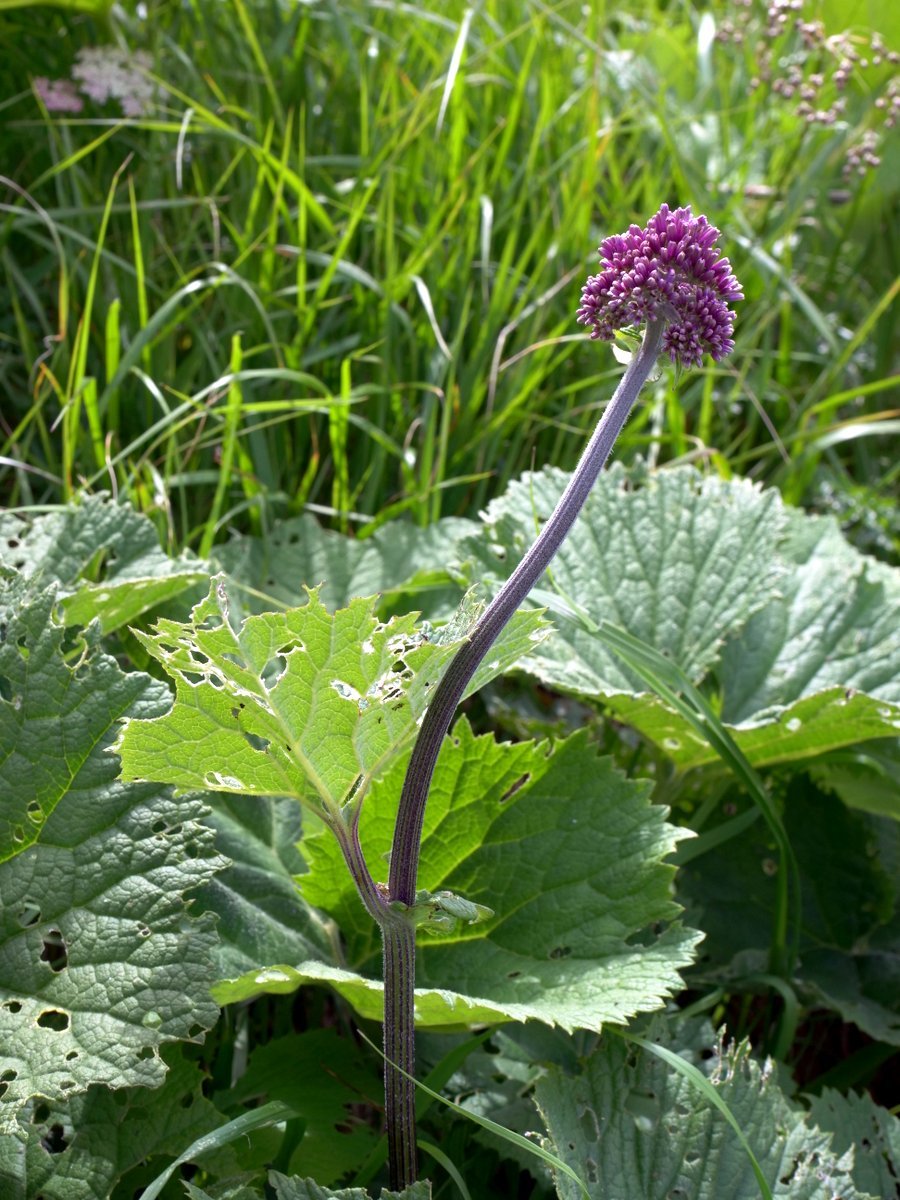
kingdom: Plantae
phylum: Tracheophyta
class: Magnoliopsida
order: Asterales
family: Asteraceae
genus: Adenostyles
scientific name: Adenostyles alliariae
